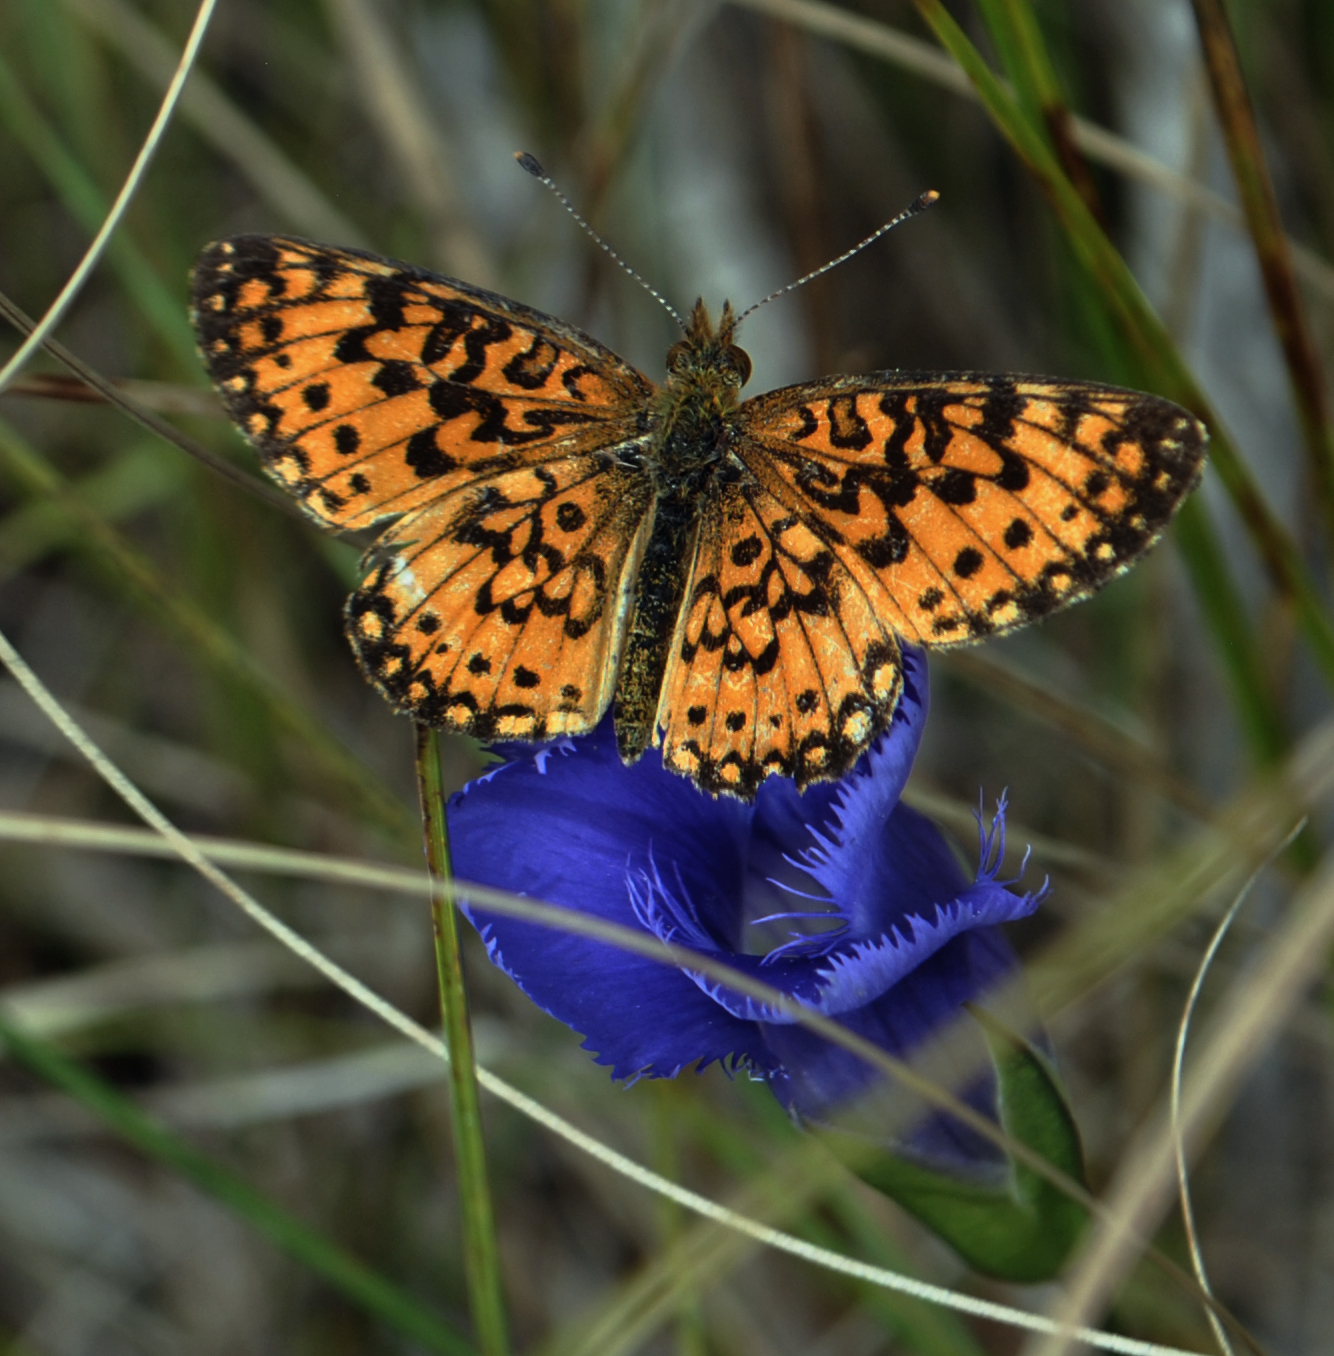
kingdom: Animalia
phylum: Arthropoda
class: Insecta
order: Lepidoptera
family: Nymphalidae
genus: Boloria
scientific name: Boloria
